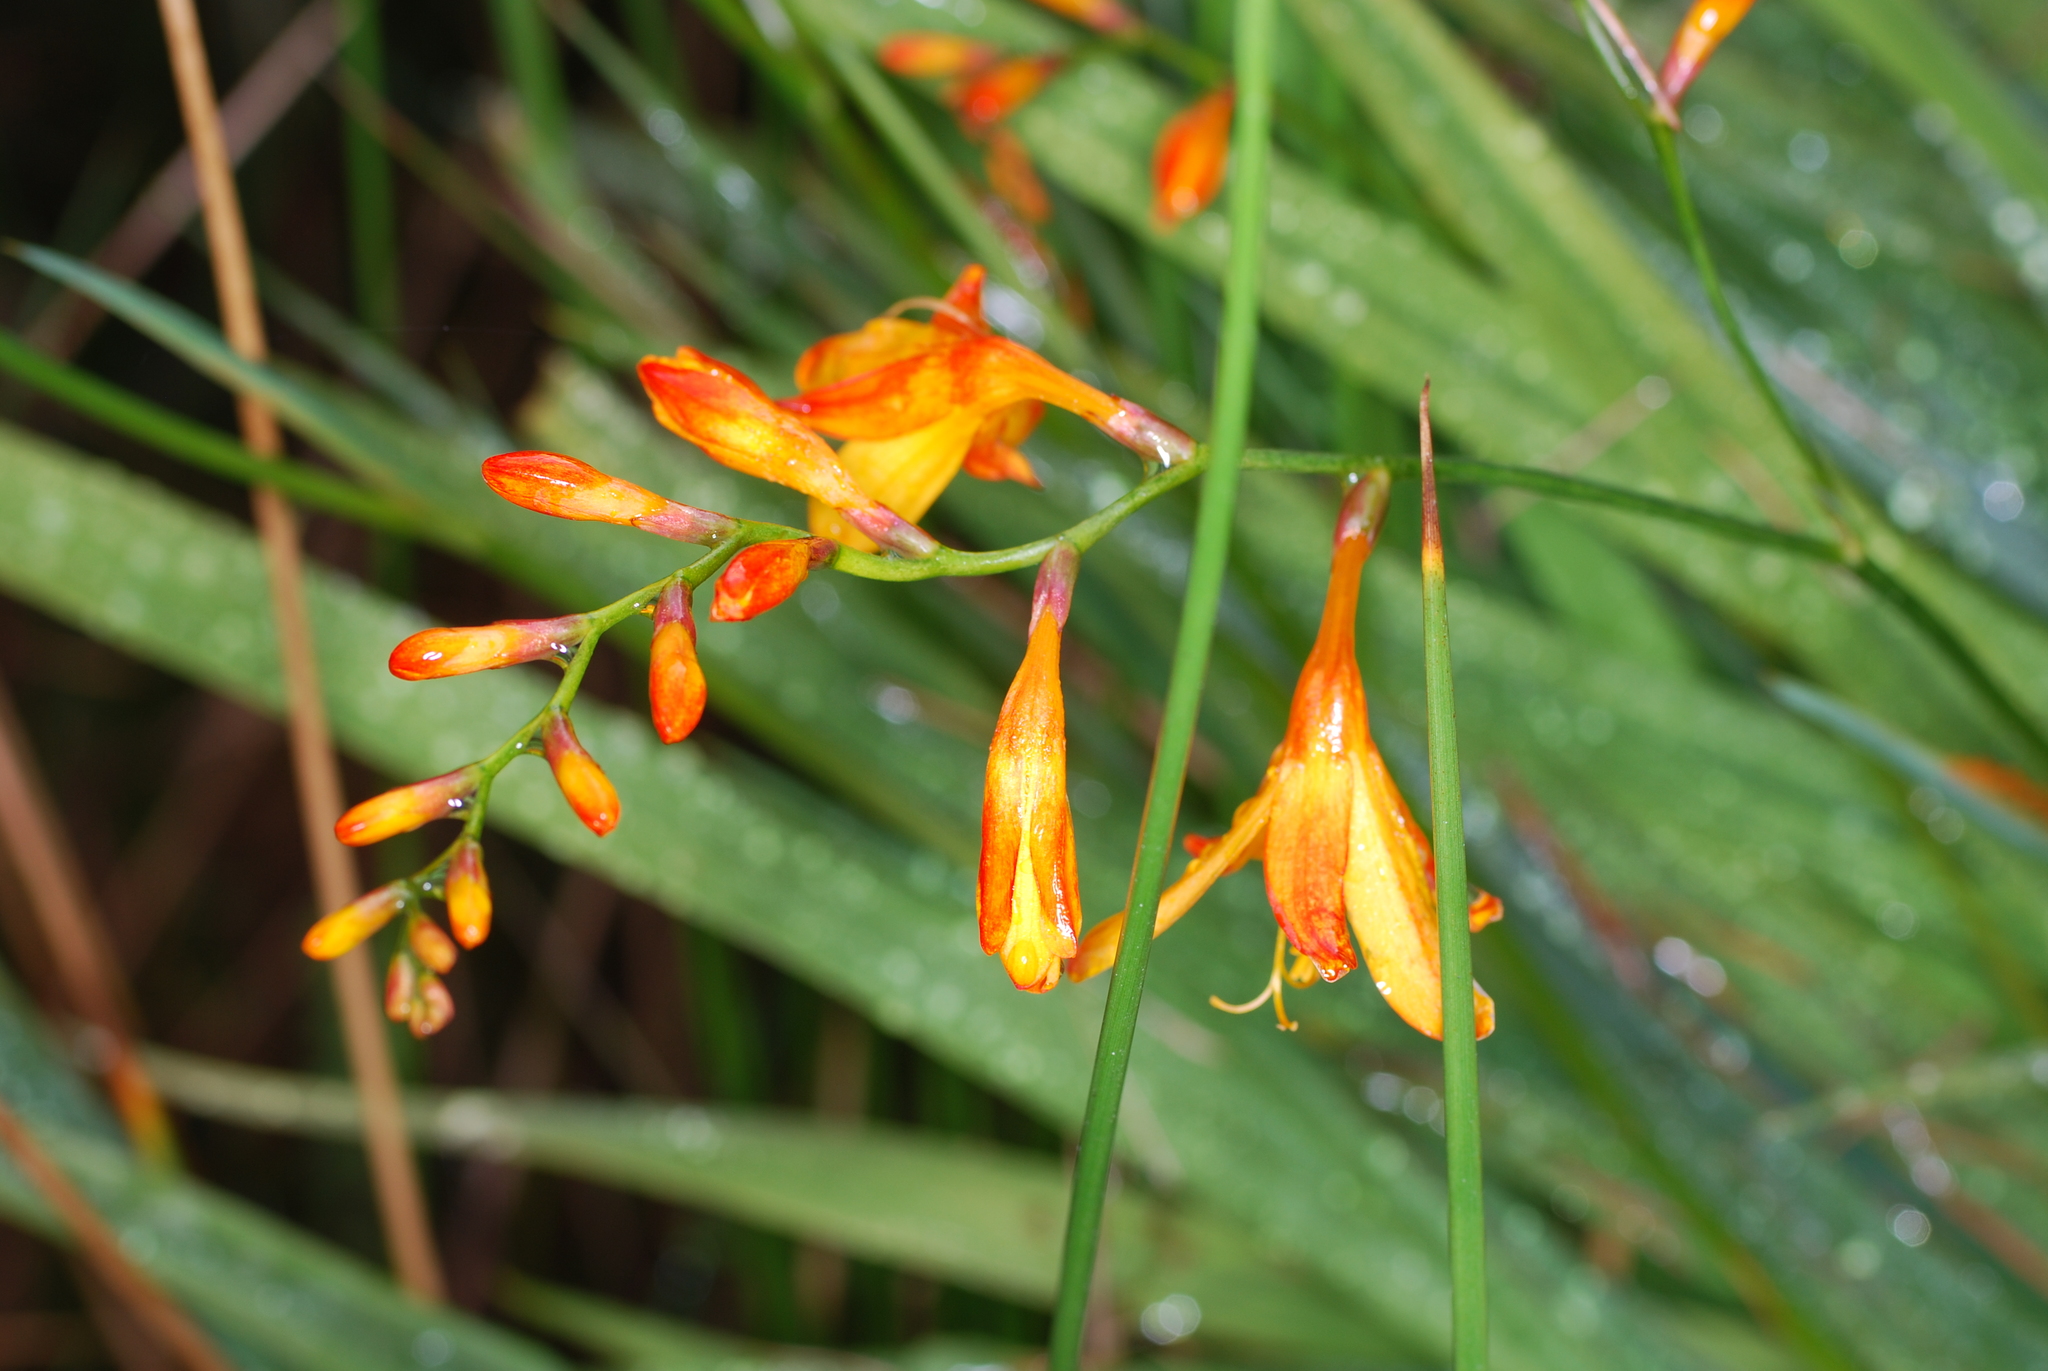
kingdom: Plantae
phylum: Tracheophyta
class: Liliopsida
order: Asparagales
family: Iridaceae
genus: Crocosmia
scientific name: Crocosmia crocosmiiflora
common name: Montbretia
